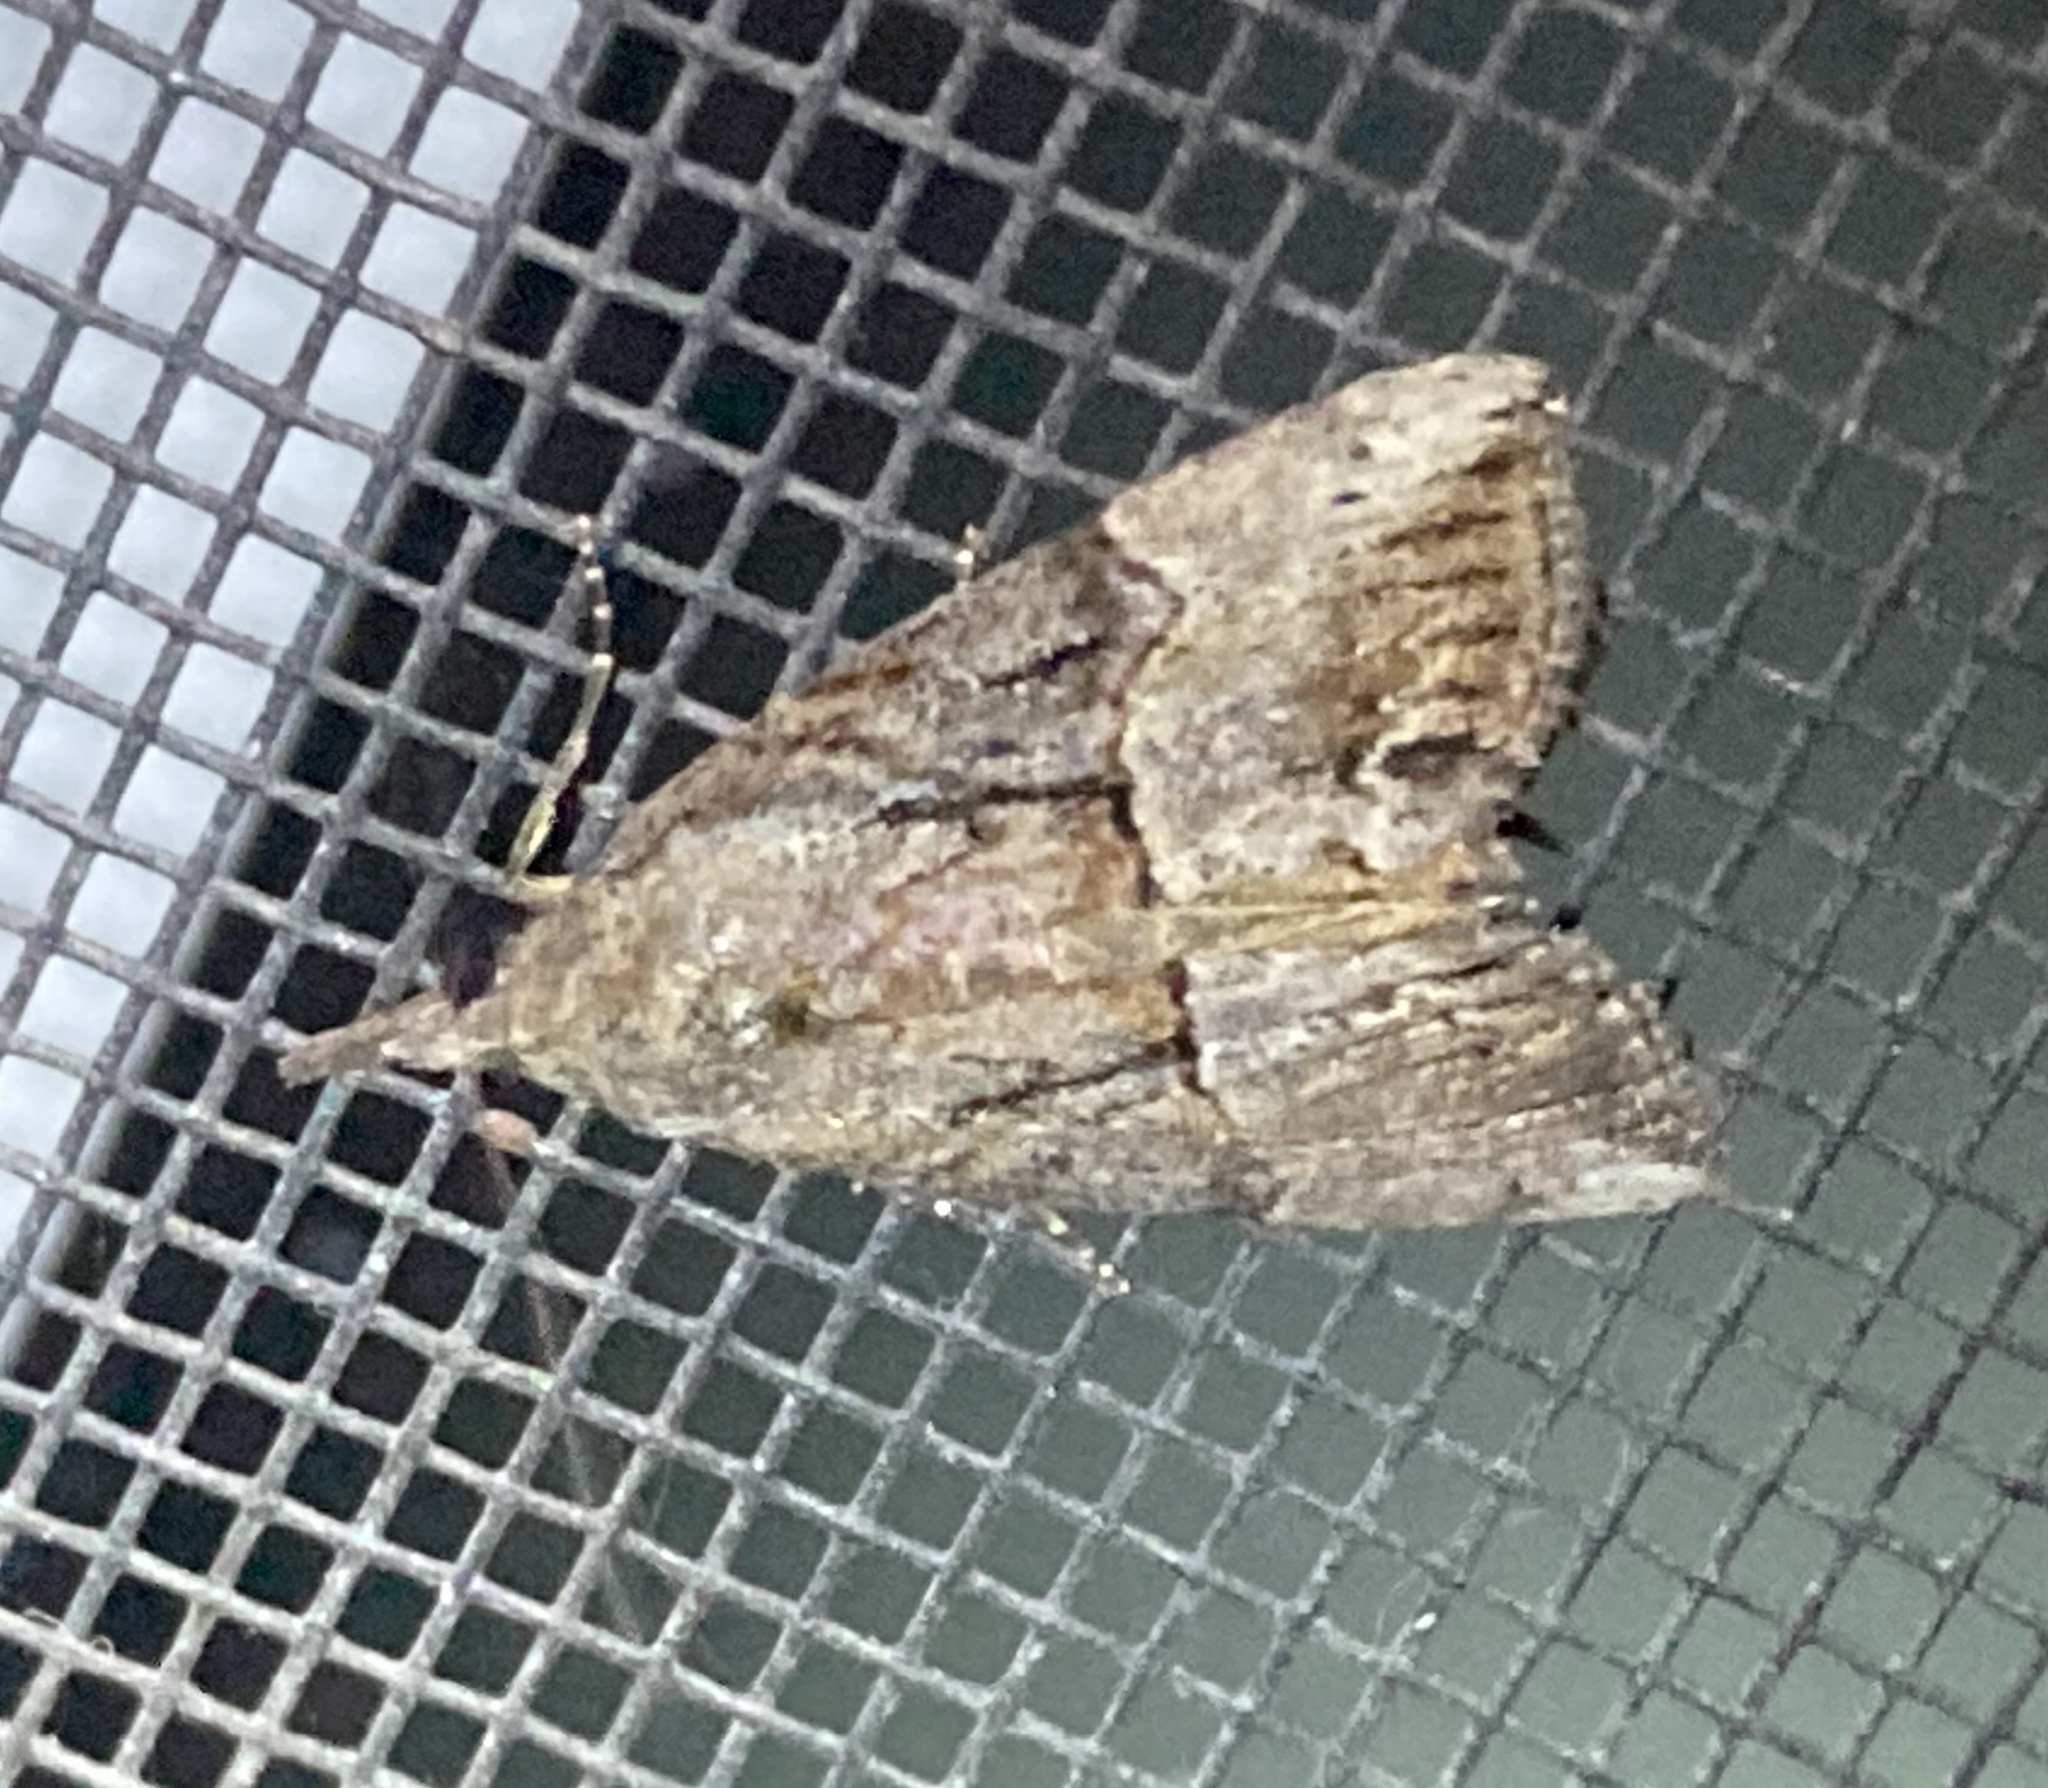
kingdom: Animalia
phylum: Arthropoda
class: Insecta
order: Lepidoptera
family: Erebidae
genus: Hypena
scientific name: Hypena scabra
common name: Green cloverworm
